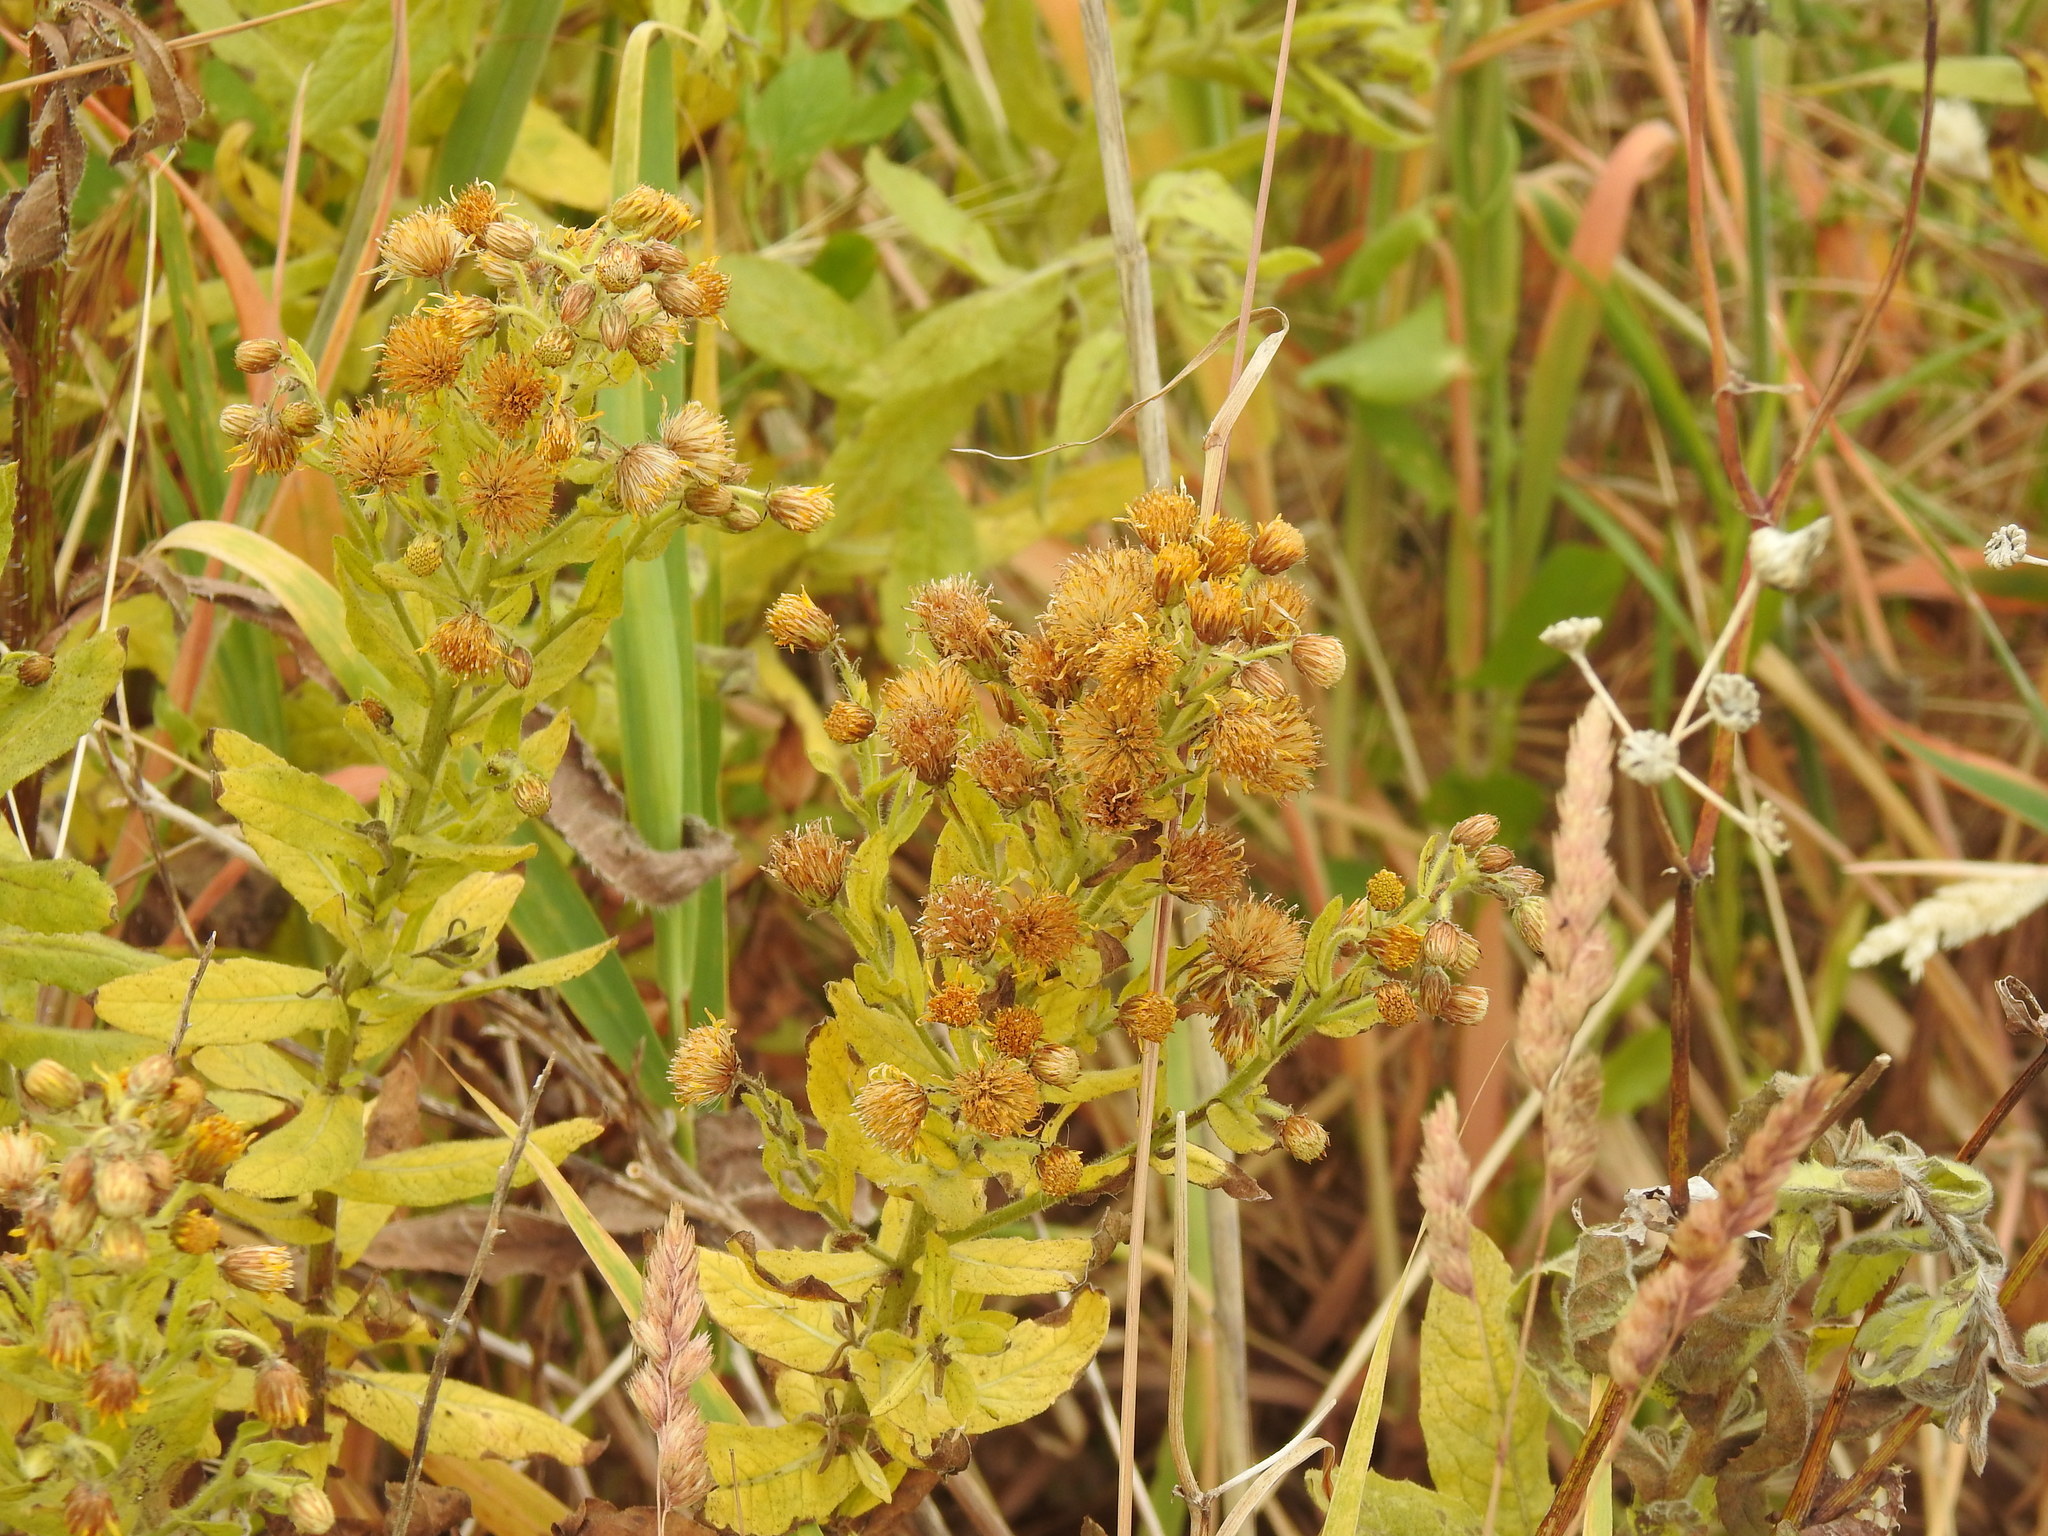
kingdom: Plantae
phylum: Tracheophyta
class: Magnoliopsida
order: Asterales
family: Asteraceae
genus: Dittrichia
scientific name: Dittrichia viscosa
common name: Woody fleabane
